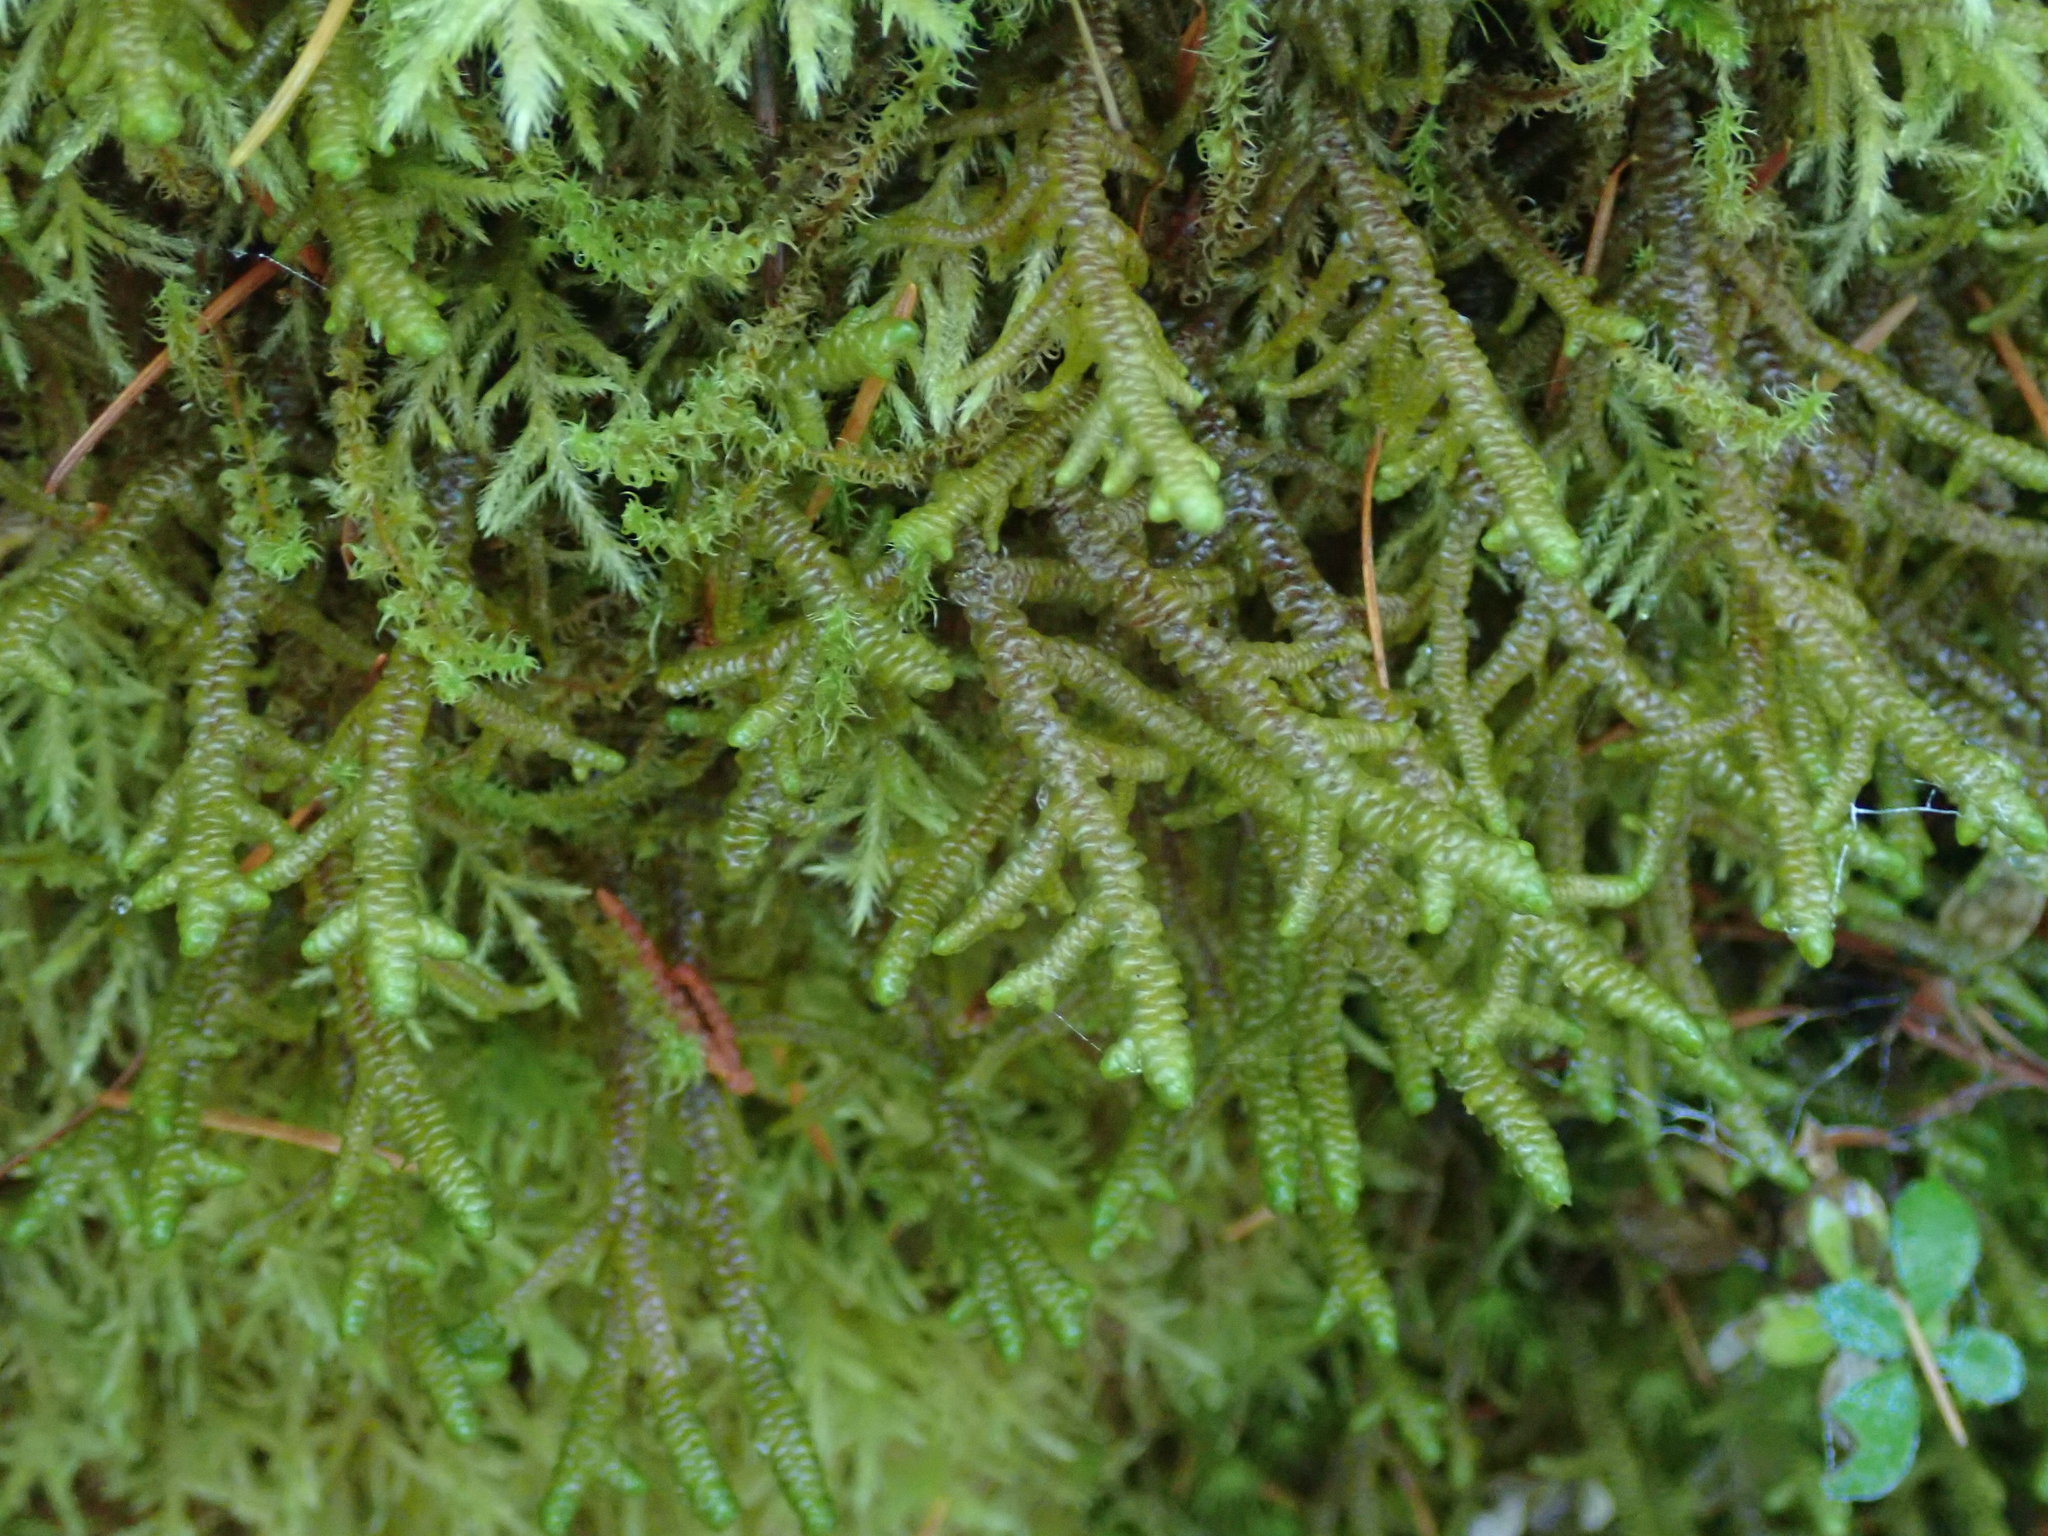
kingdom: Plantae
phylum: Marchantiophyta
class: Jungermanniopsida
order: Porellales
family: Porellaceae
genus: Porella
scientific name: Porella navicularis
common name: Tree ruffle liverwort
